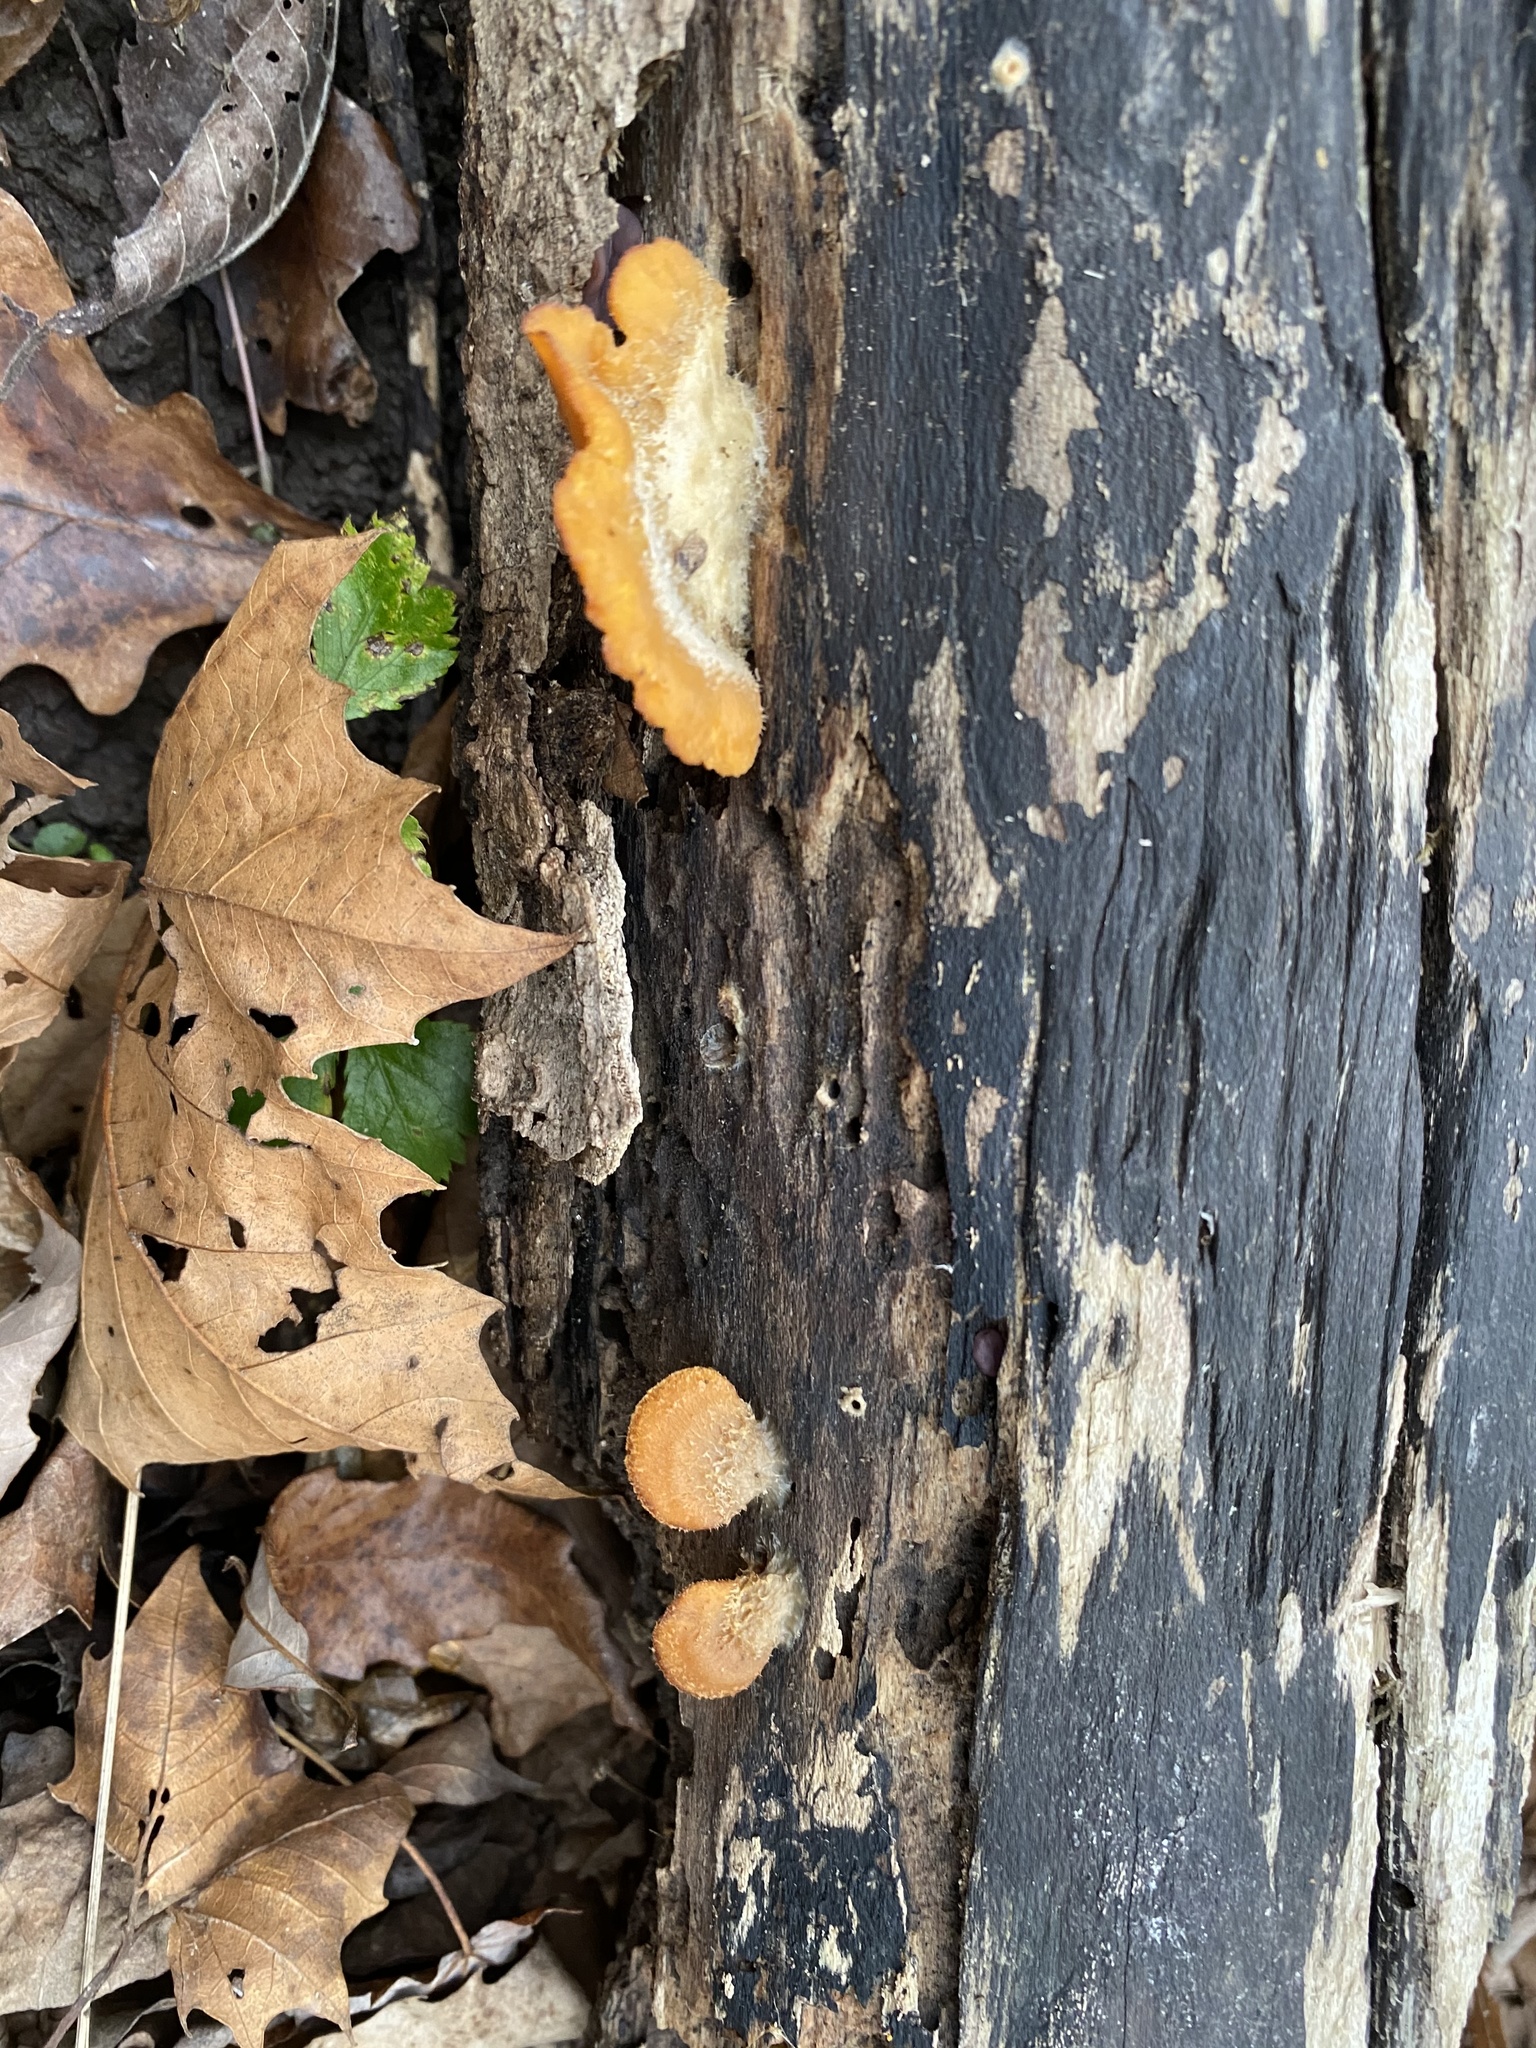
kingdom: Fungi
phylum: Basidiomycota
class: Agaricomycetes
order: Agaricales
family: Phyllotopsidaceae
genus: Phyllotopsis
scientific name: Phyllotopsis nidulans
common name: Orange mock oyster
